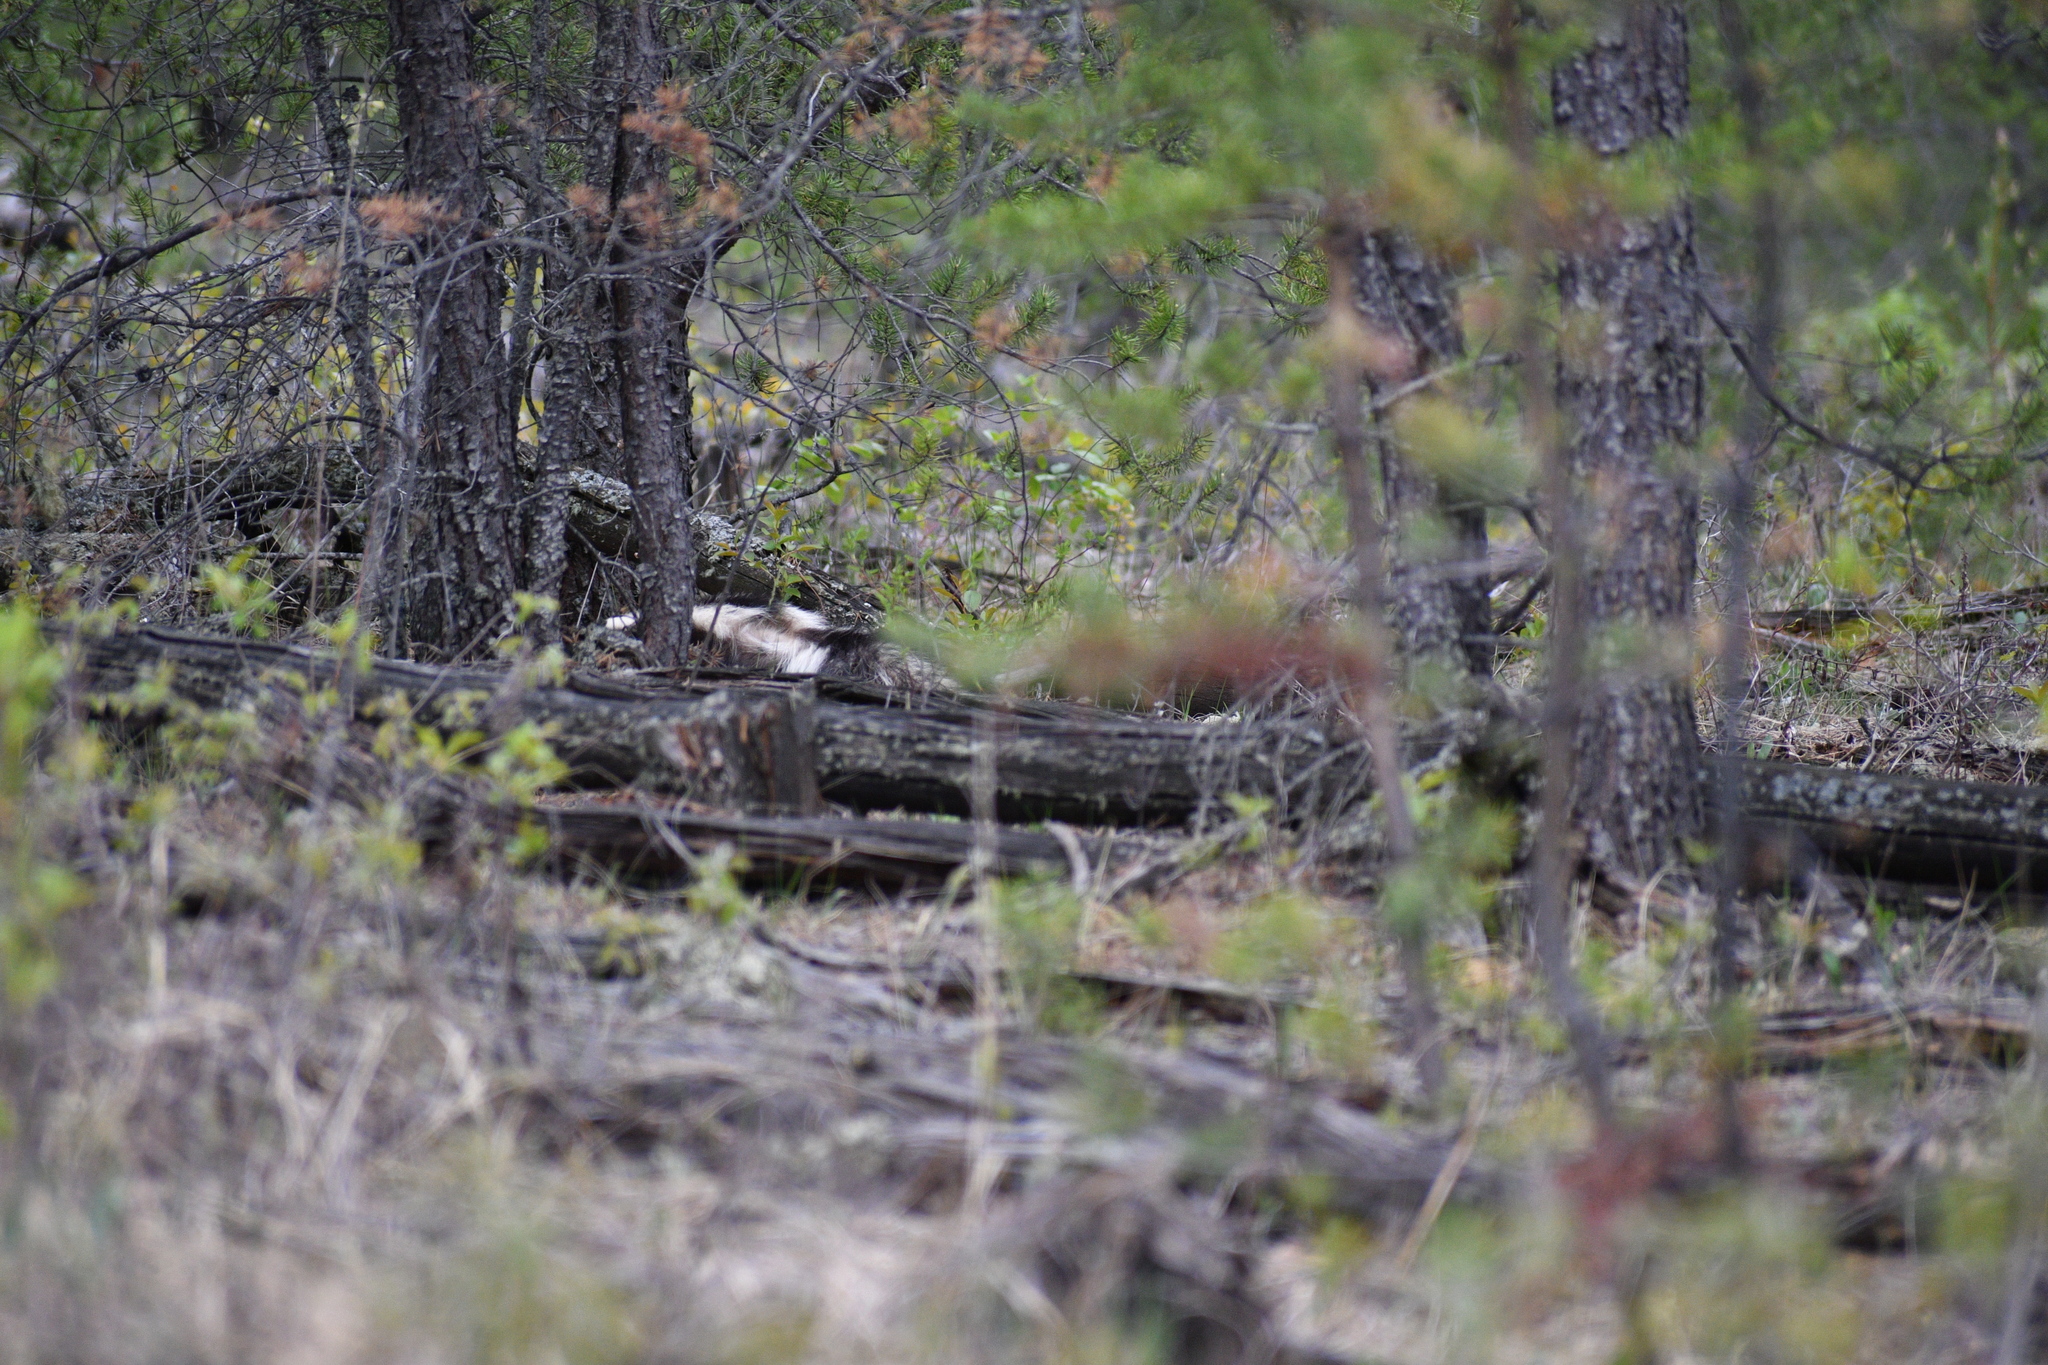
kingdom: Animalia
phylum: Chordata
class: Mammalia
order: Carnivora
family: Mephitidae
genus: Mephitis
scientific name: Mephitis mephitis
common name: Striped skunk
